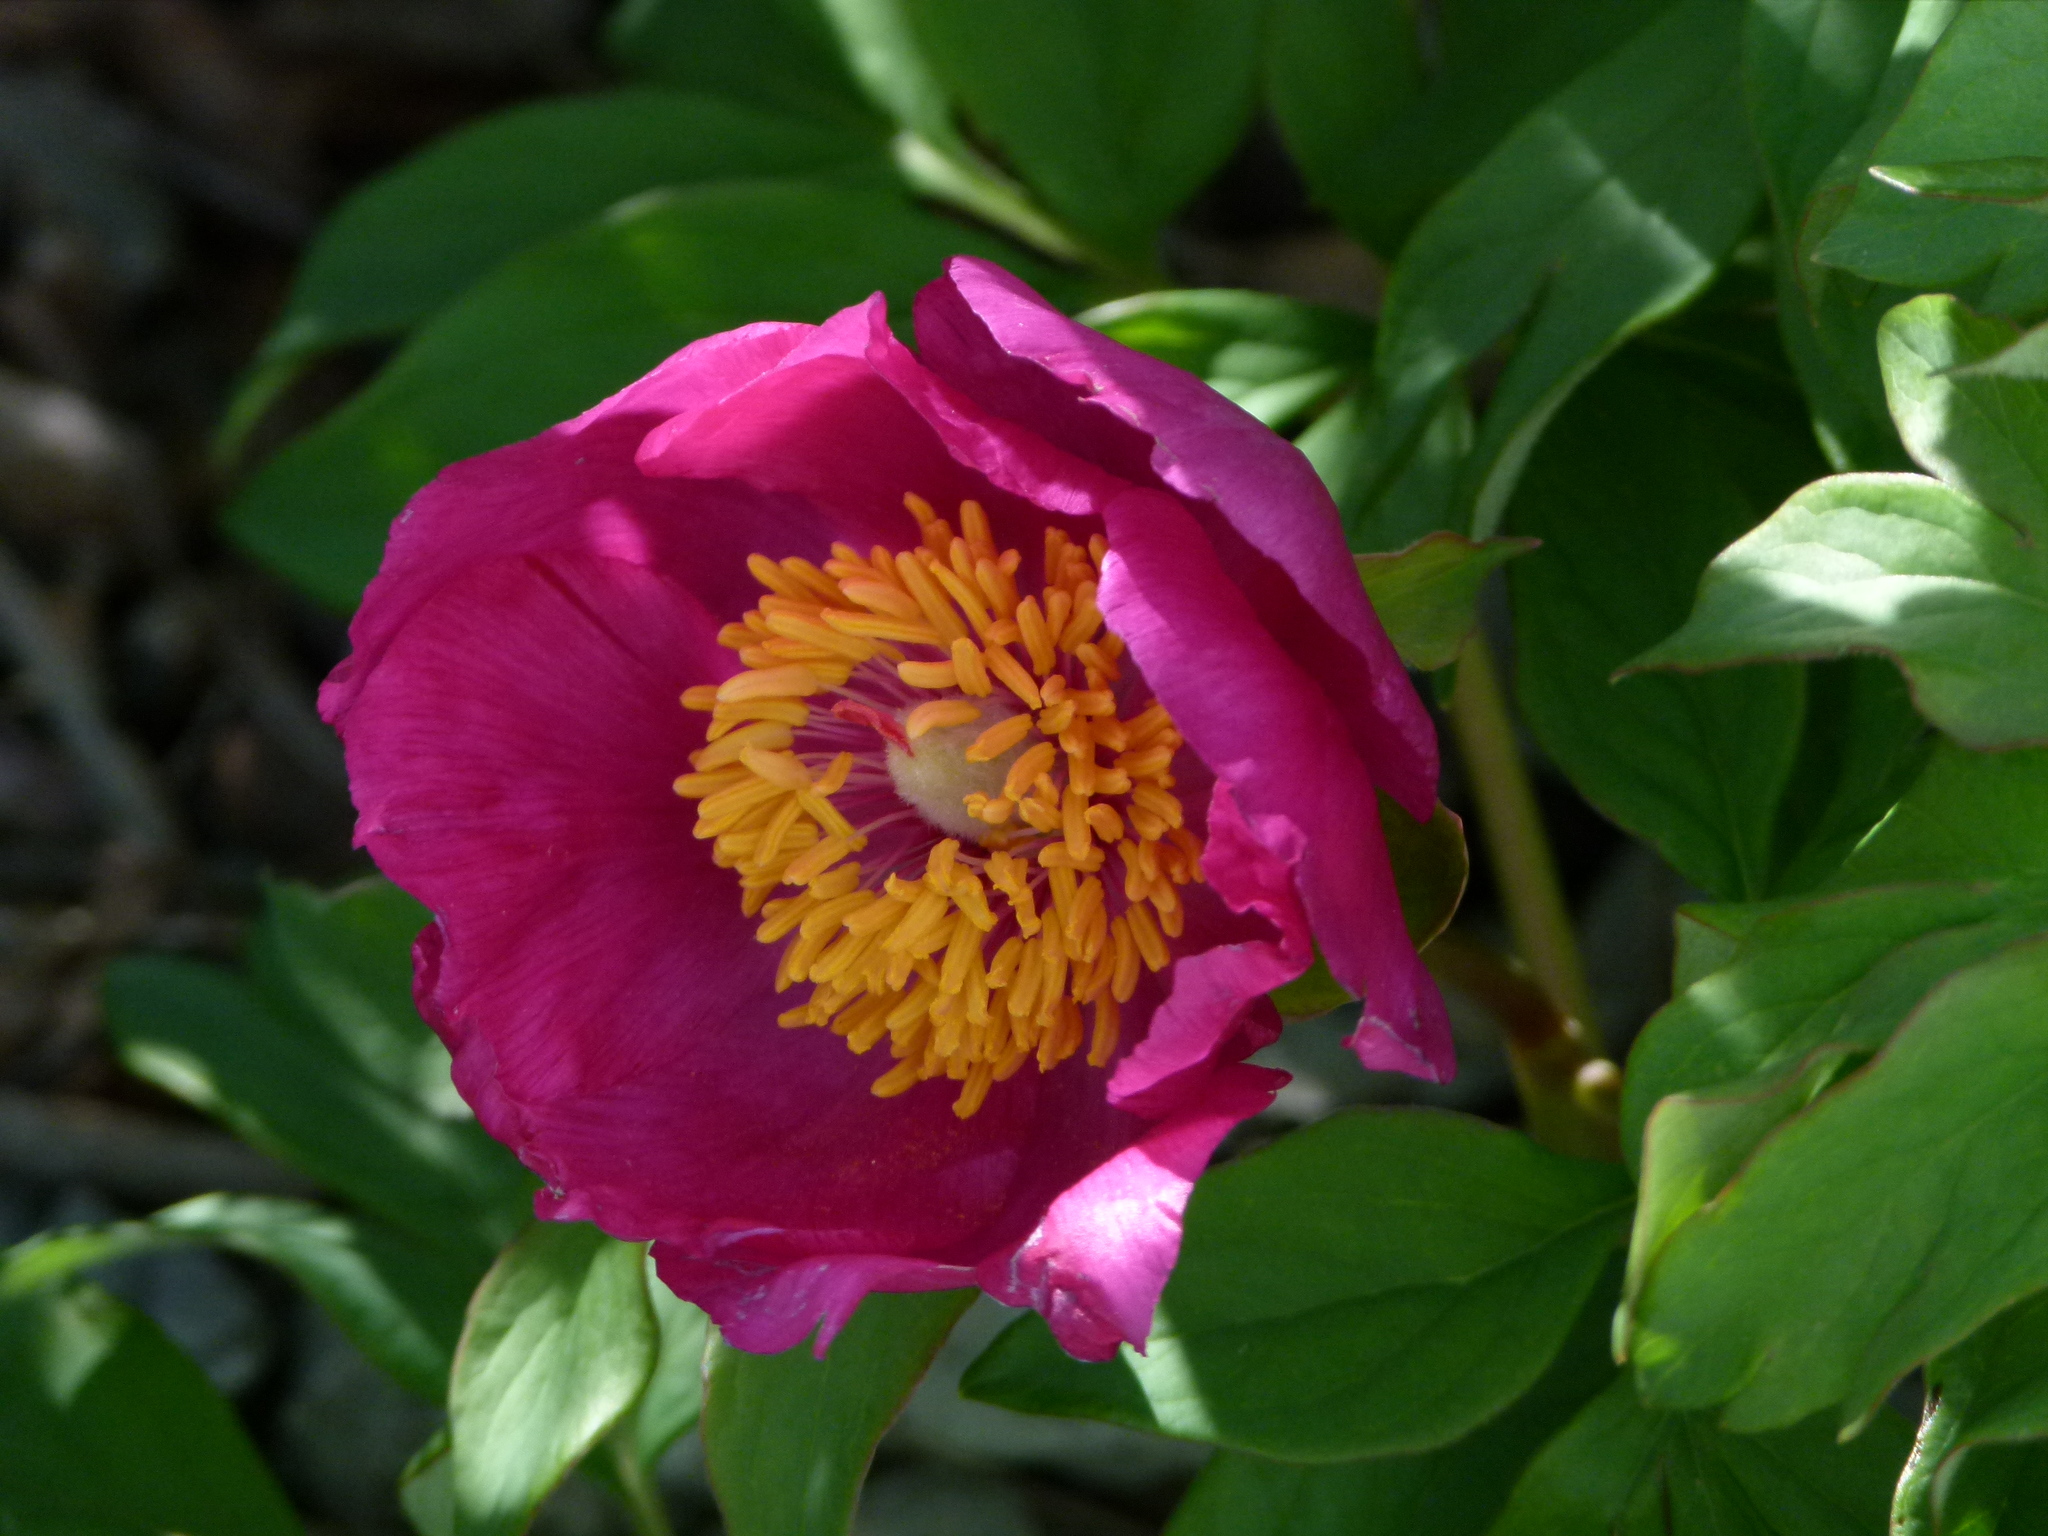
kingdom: Plantae
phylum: Tracheophyta
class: Magnoliopsida
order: Saxifragales
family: Paeoniaceae
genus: Paeonia
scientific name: Paeonia officinalis
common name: Common peony
